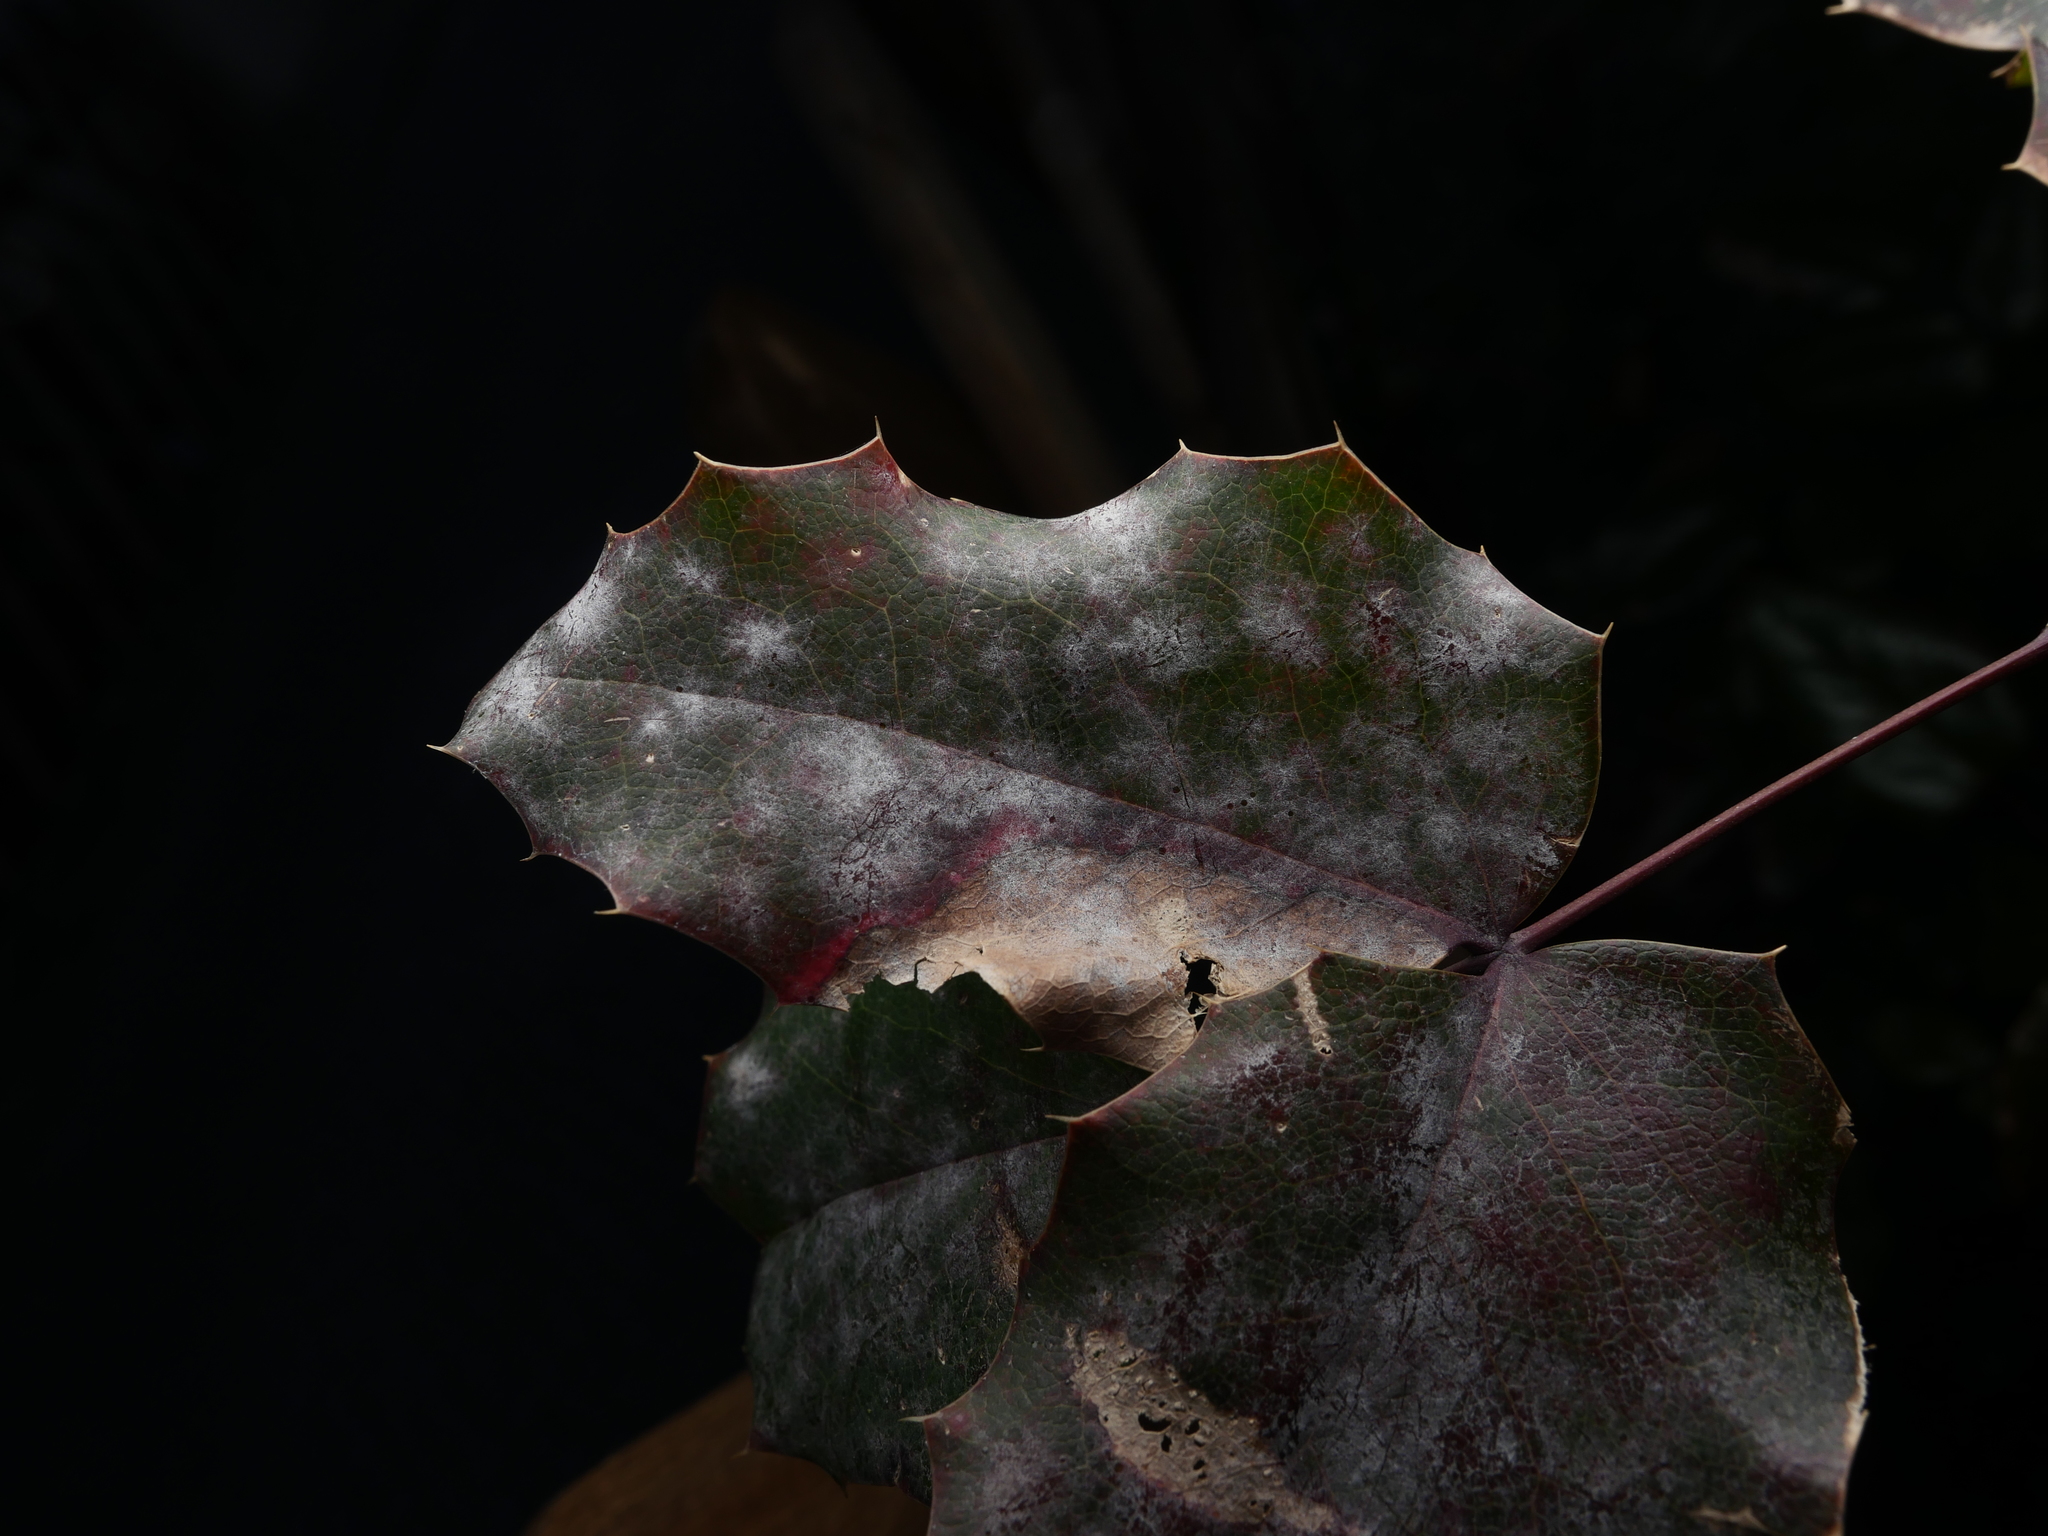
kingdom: Fungi
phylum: Ascomycota
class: Leotiomycetes
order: Helotiales
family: Erysiphaceae
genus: Erysiphe
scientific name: Erysiphe berberidis
